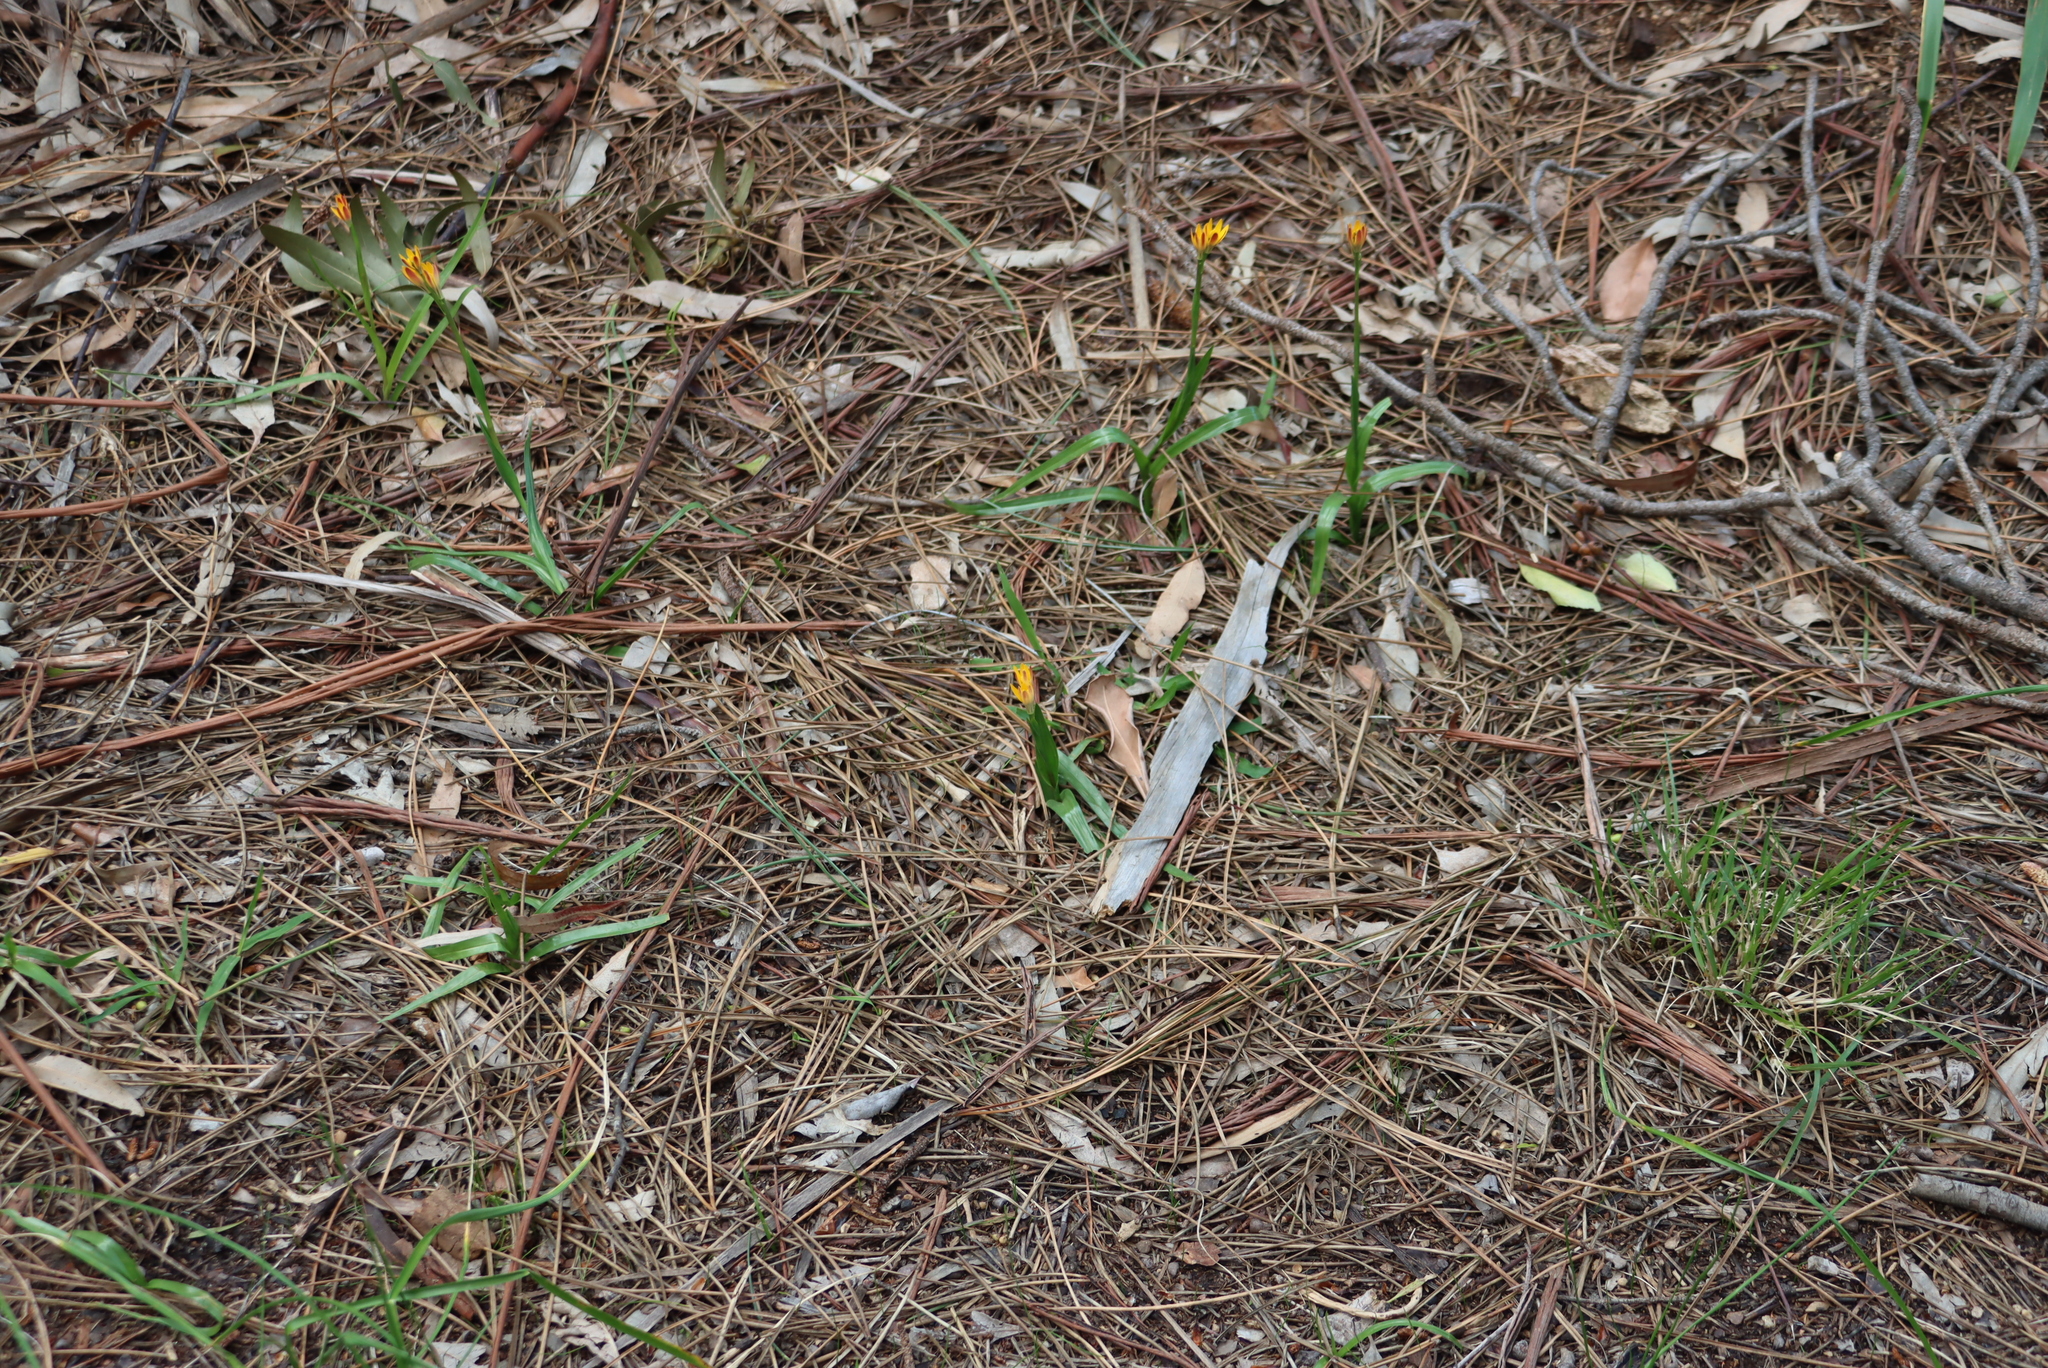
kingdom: Plantae
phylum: Tracheophyta
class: Liliopsida
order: Liliales
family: Colchicaceae
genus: Baeometra
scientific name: Baeometra uniflora
